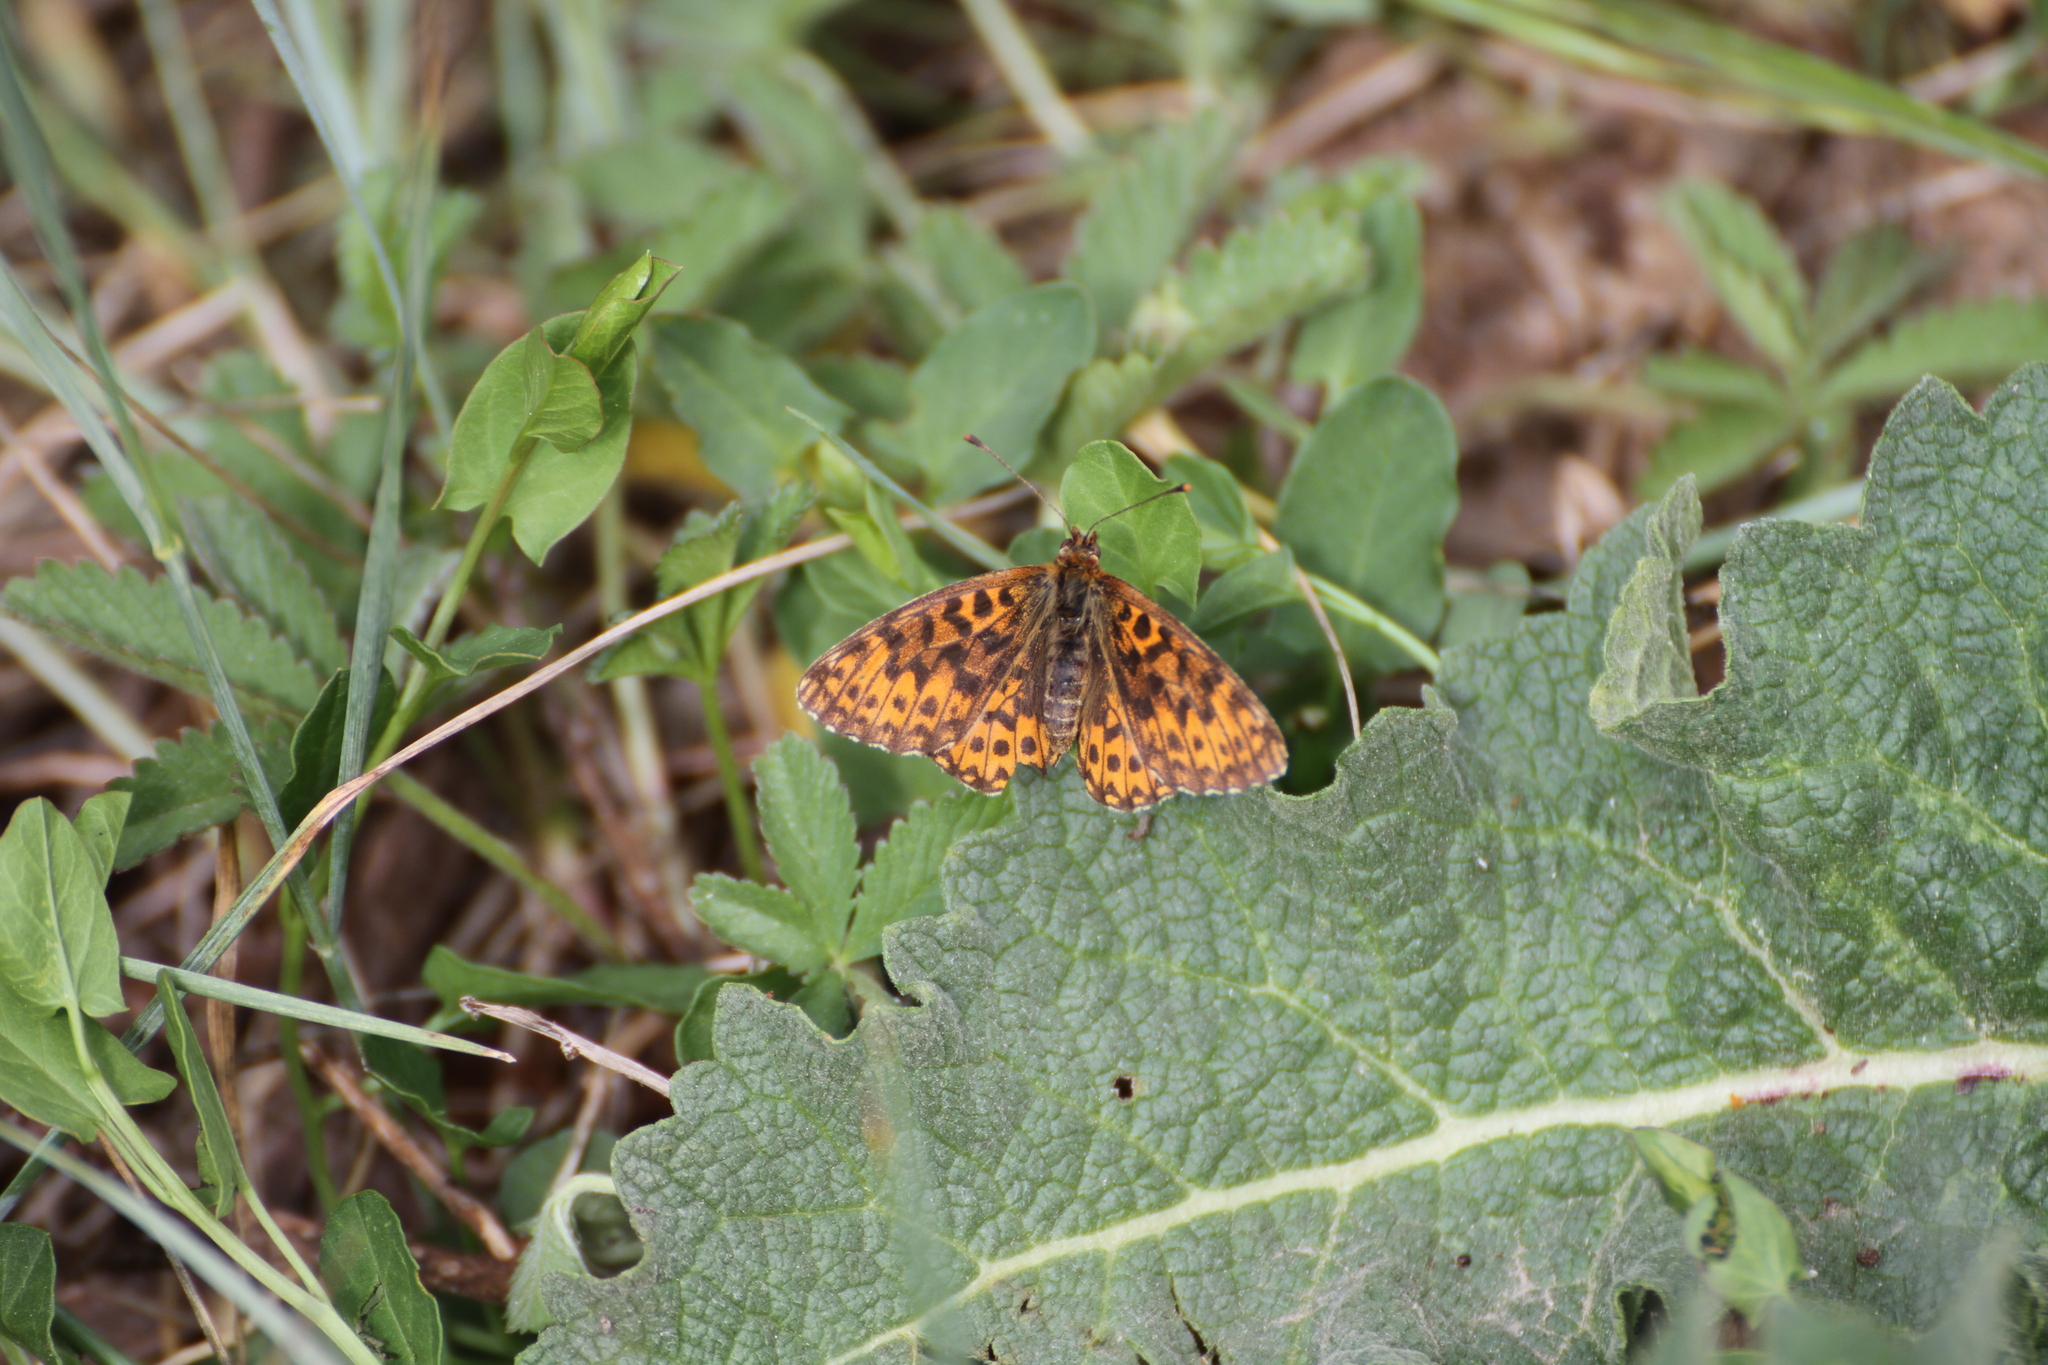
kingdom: Animalia
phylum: Arthropoda
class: Insecta
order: Lepidoptera
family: Nymphalidae
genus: Boloria
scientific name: Boloria dia
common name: Weaver's fritillary
